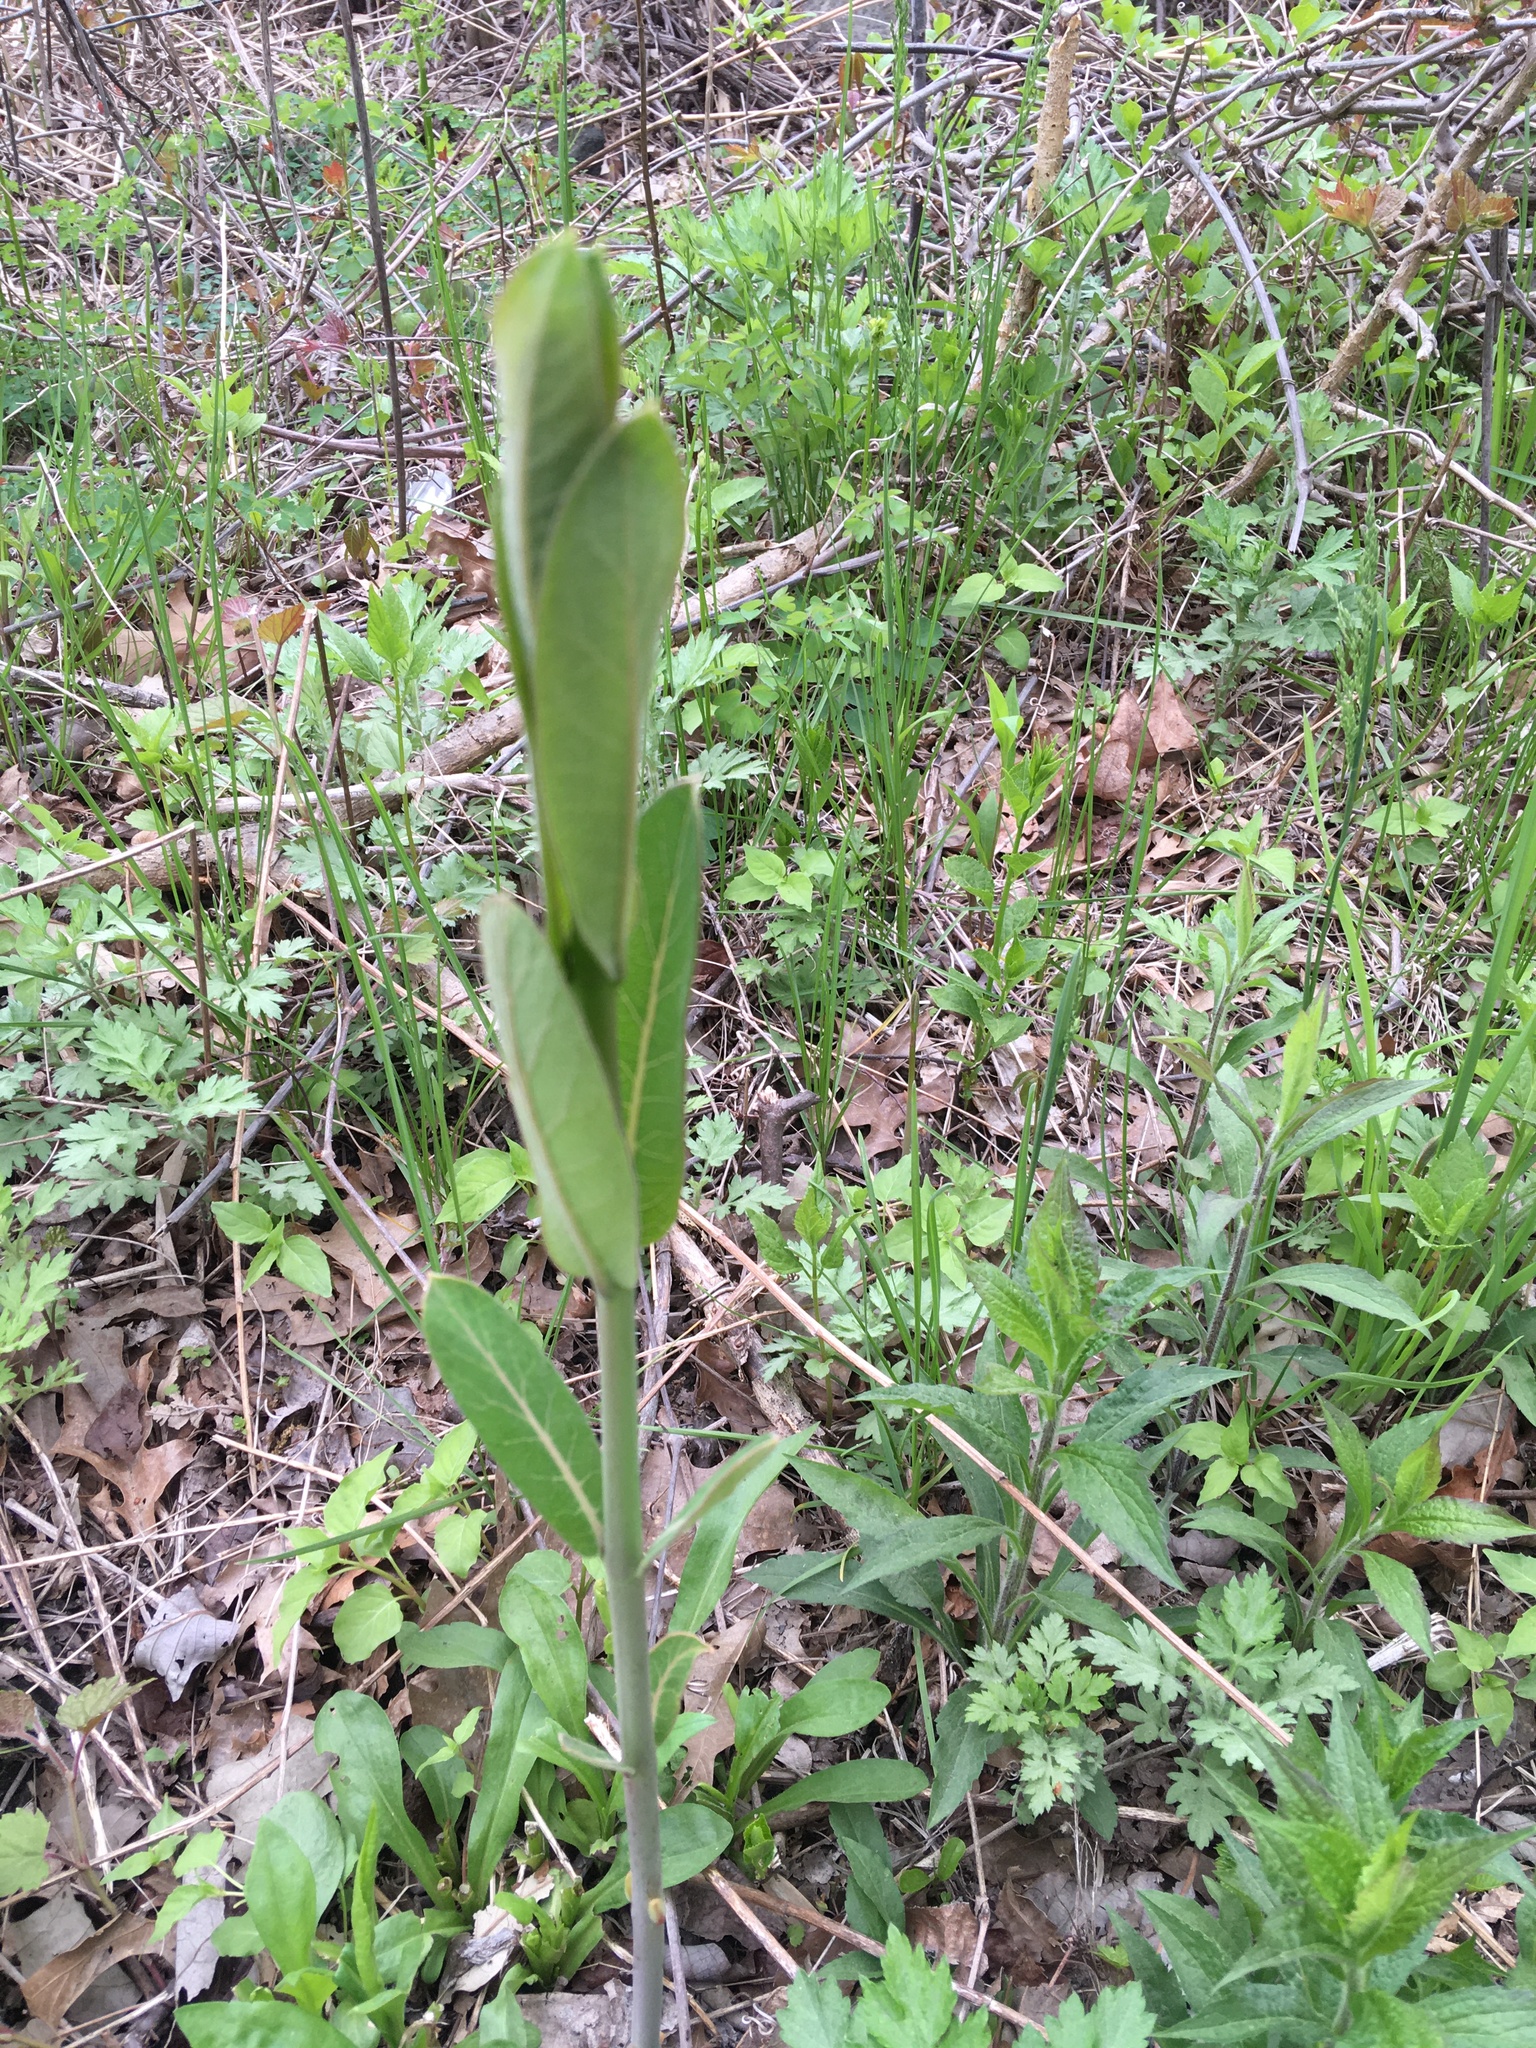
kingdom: Plantae
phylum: Tracheophyta
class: Magnoliopsida
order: Gentianales
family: Apocynaceae
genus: Apocynum
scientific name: Apocynum cannabinum
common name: Hemp dogbane
